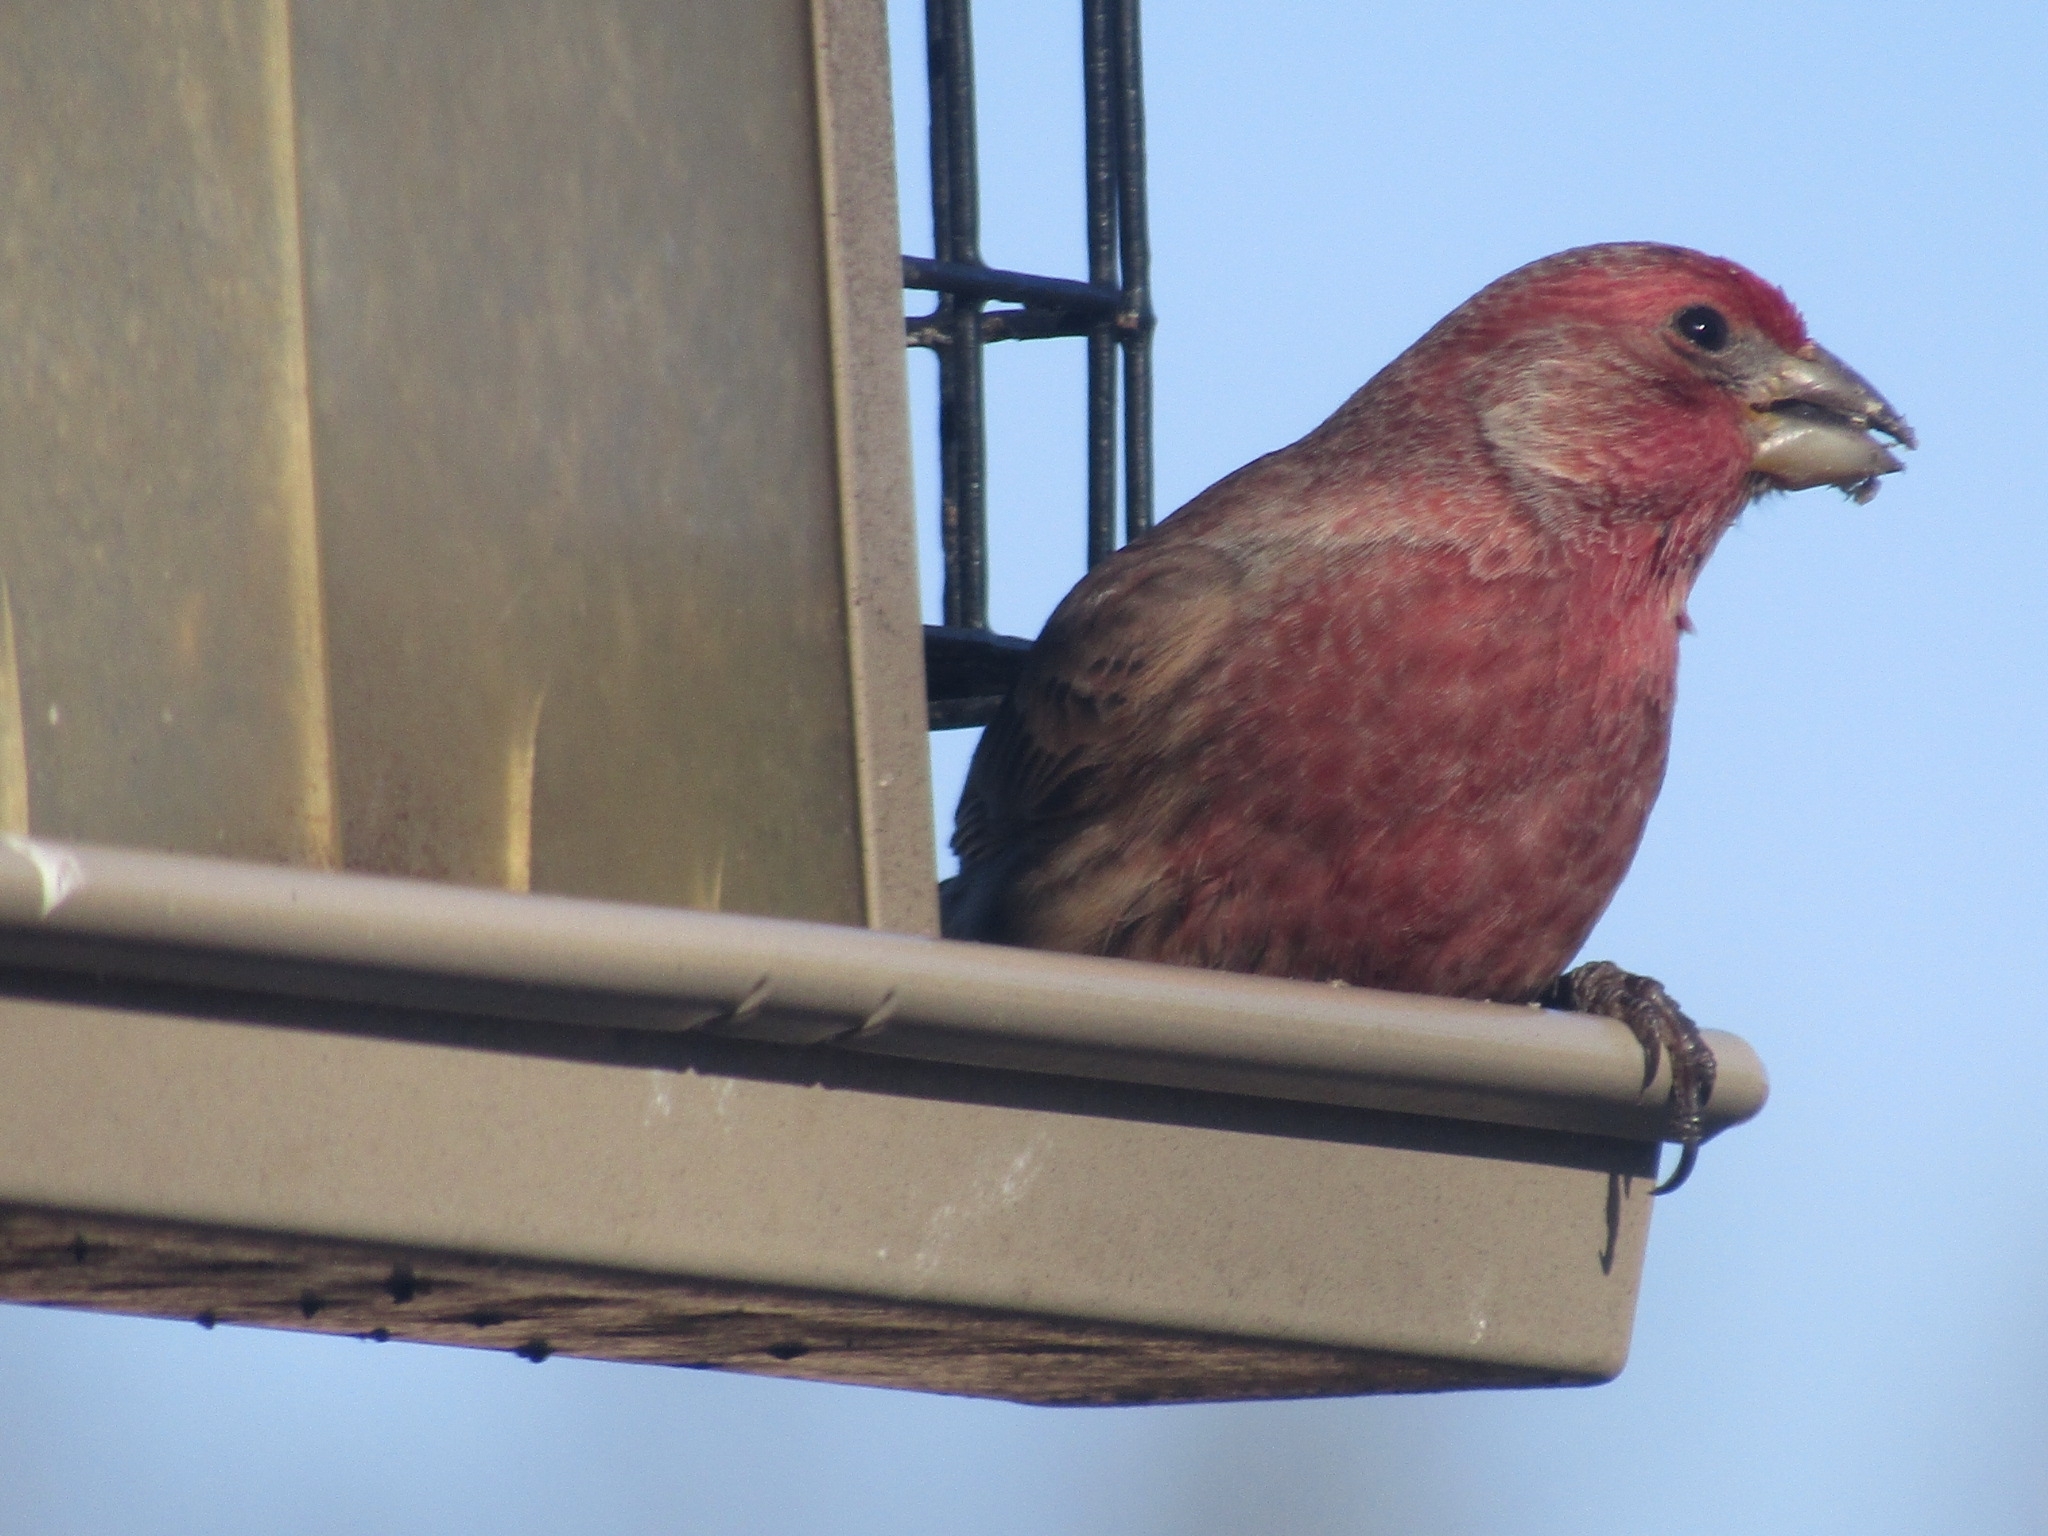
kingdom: Animalia
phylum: Chordata
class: Aves
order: Passeriformes
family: Fringillidae
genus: Haemorhous
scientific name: Haemorhous mexicanus
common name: House finch
